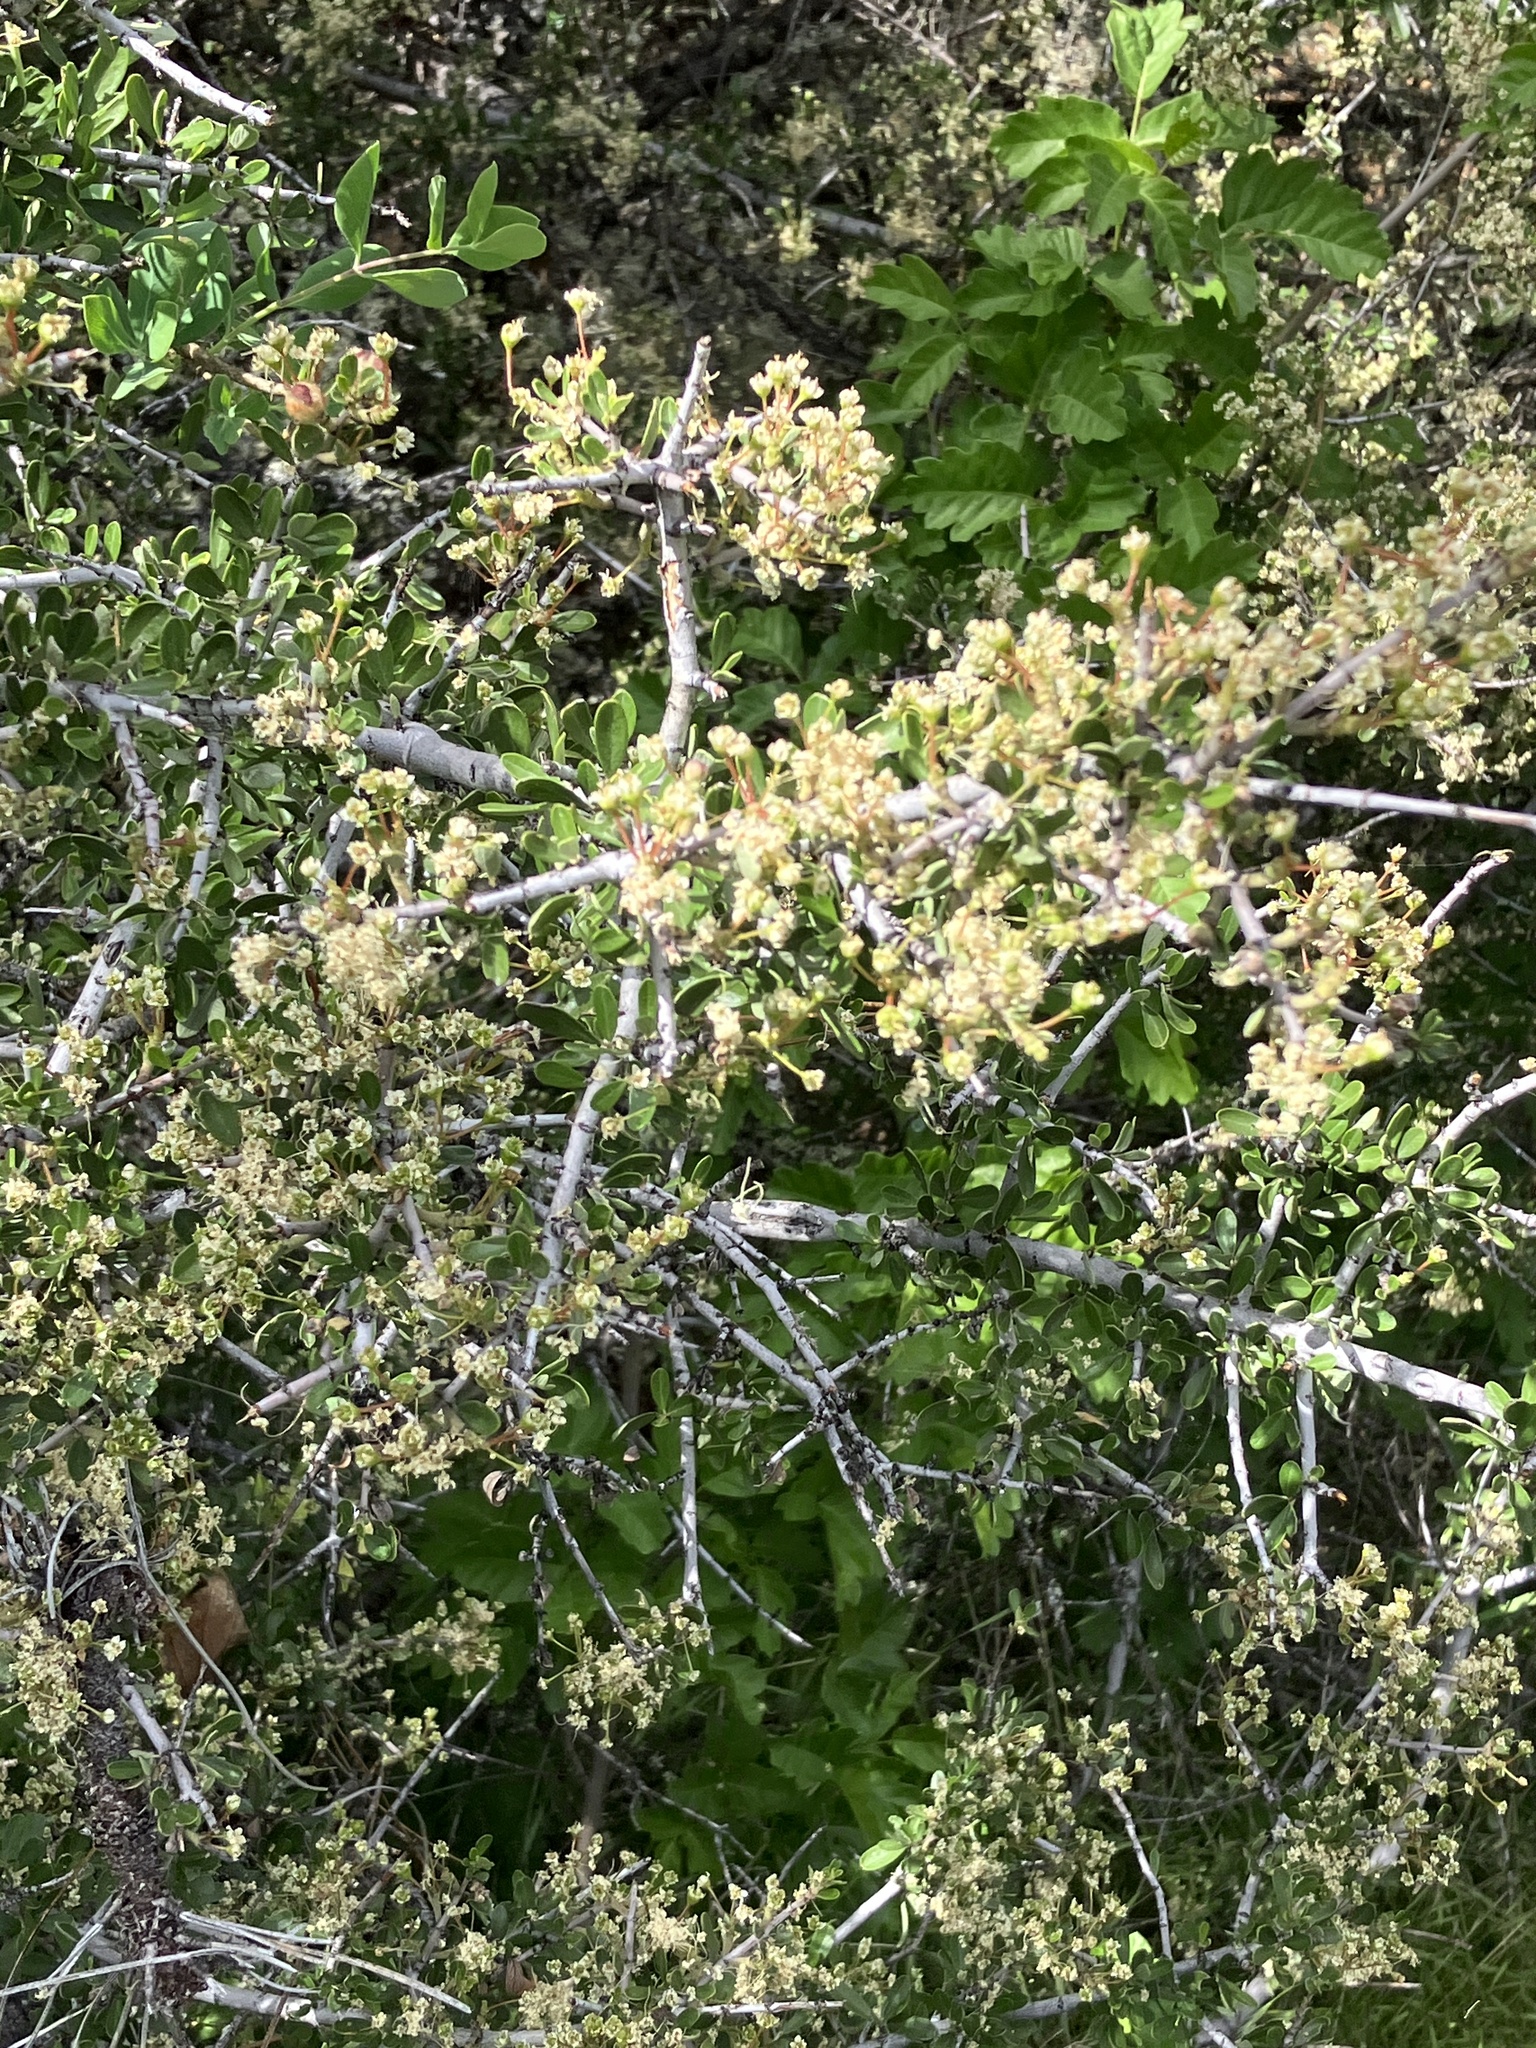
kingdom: Plantae
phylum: Tracheophyta
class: Magnoliopsida
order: Rosales
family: Rhamnaceae
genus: Ceanothus
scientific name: Ceanothus cuneatus
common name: Cuneate ceanothus
